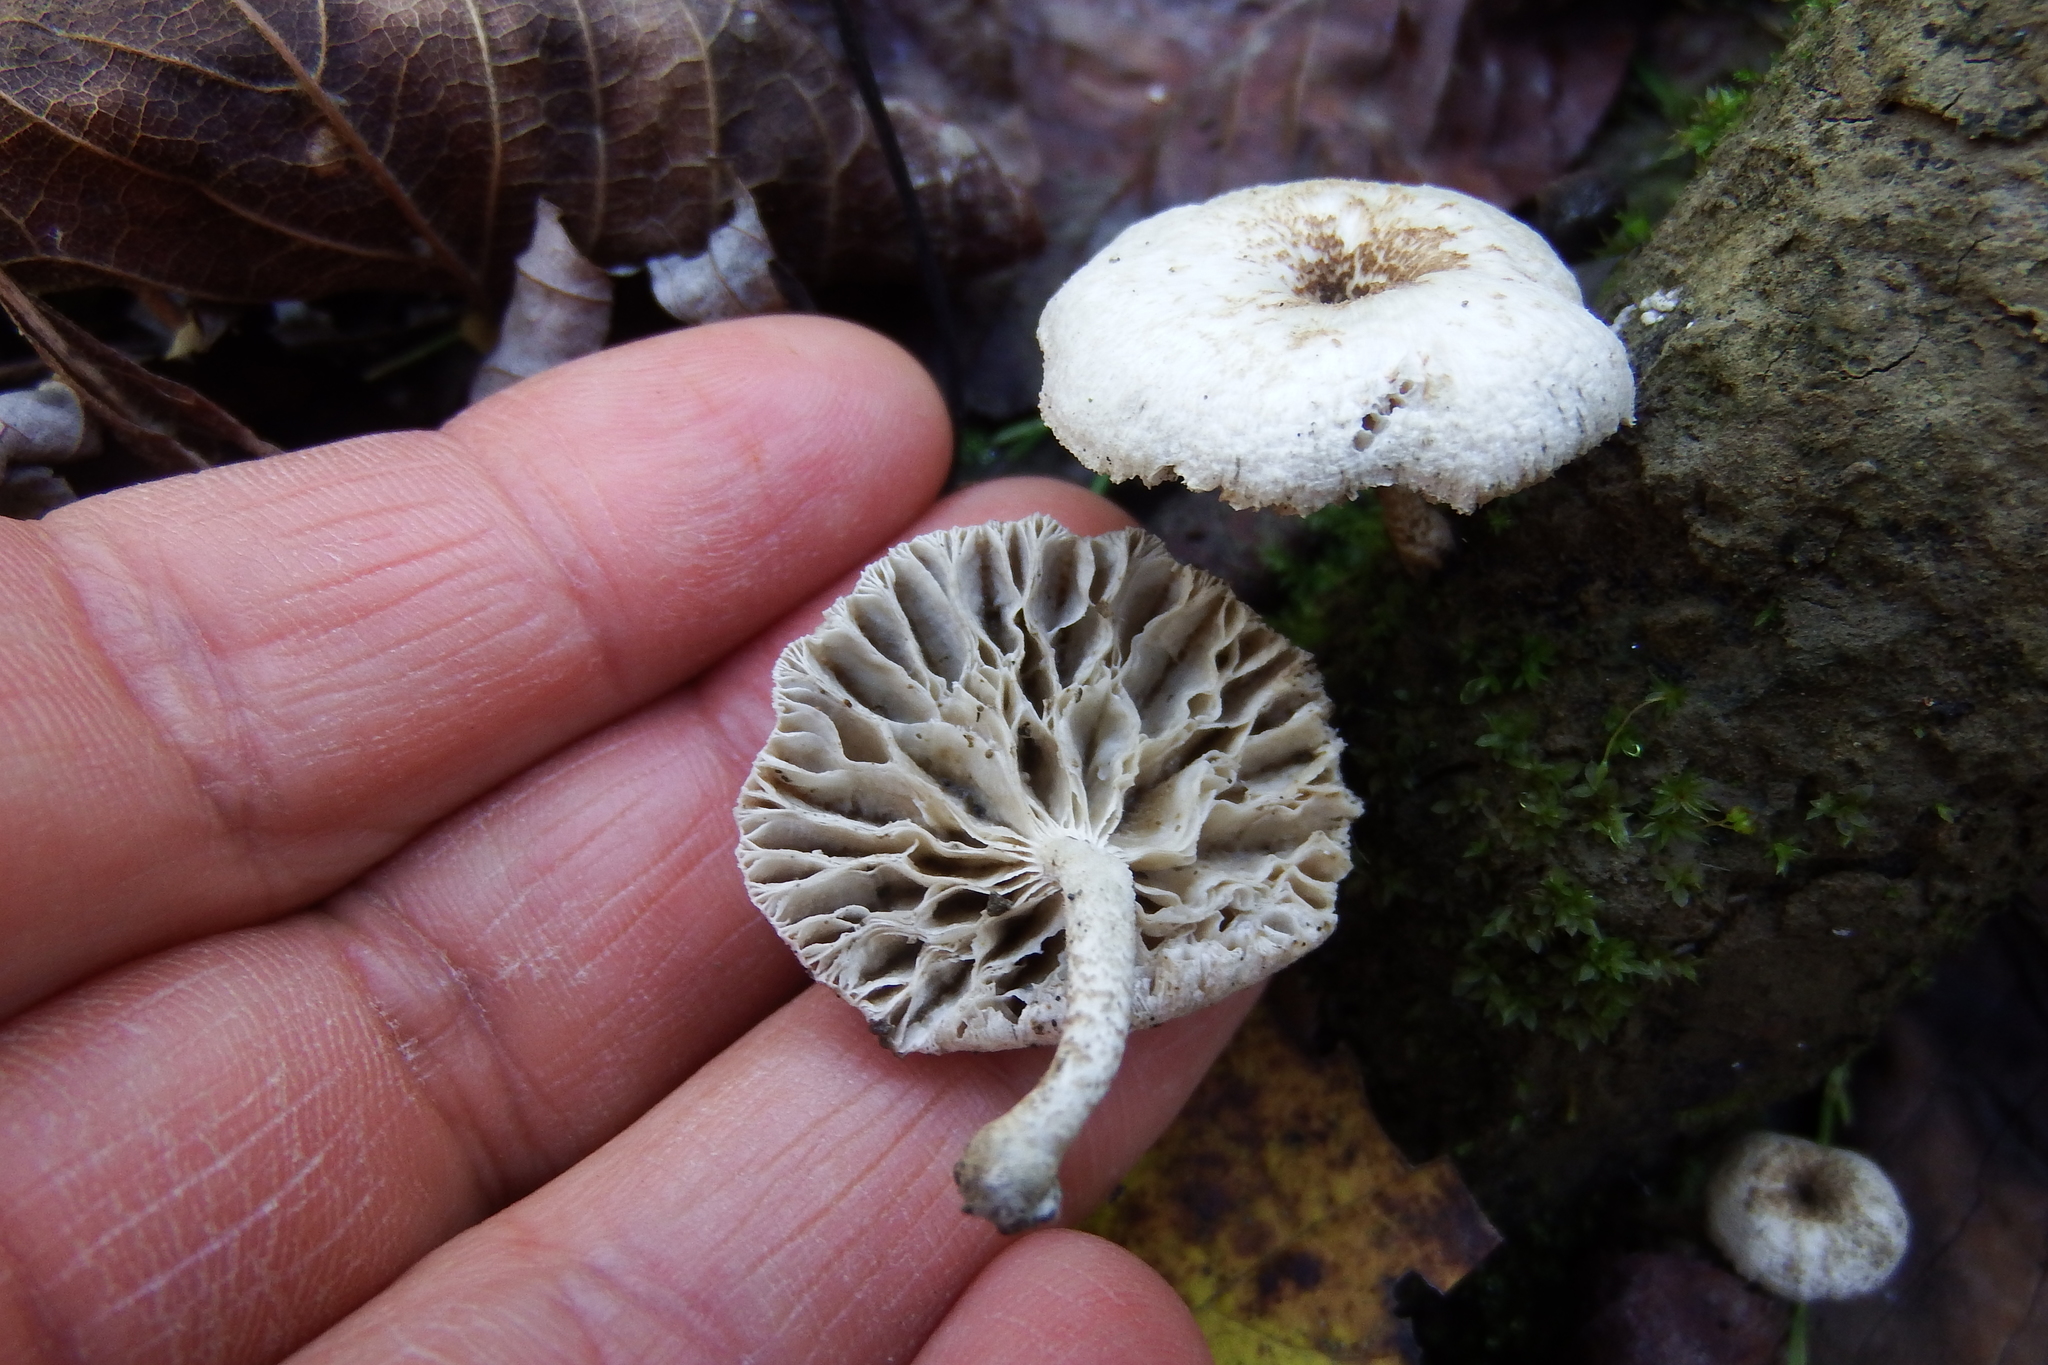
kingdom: Fungi
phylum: Basidiomycota
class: Agaricomycetes
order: Polyporales
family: Polyporaceae
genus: Lentinus
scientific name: Lentinus tigrinus
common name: Tiger sawgill
